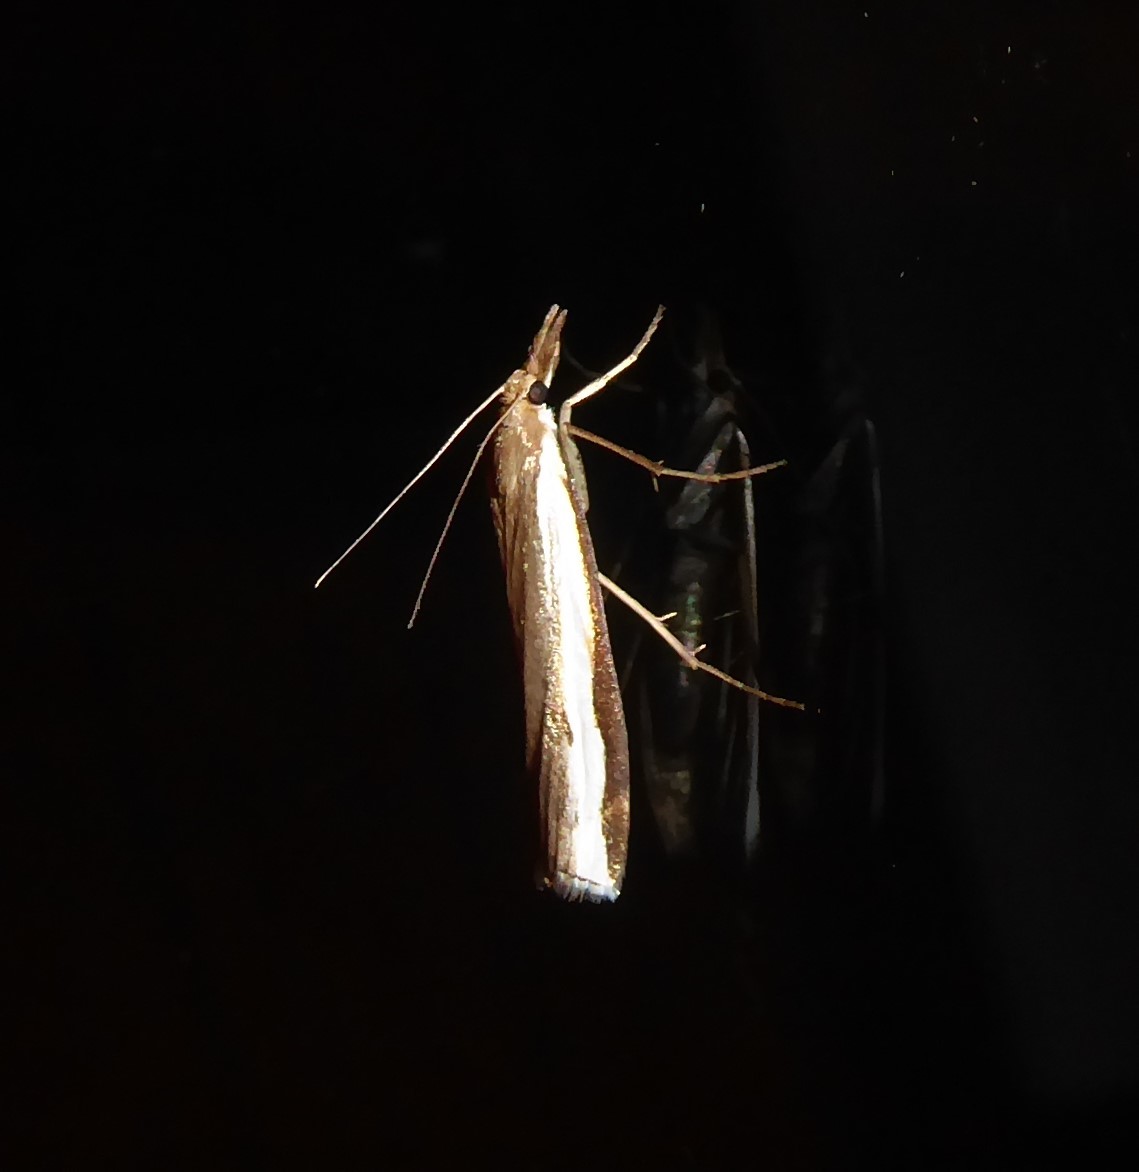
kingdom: Animalia
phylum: Arthropoda
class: Insecta
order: Lepidoptera
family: Crambidae
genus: Orocrambus
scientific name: Orocrambus flexuosellus
